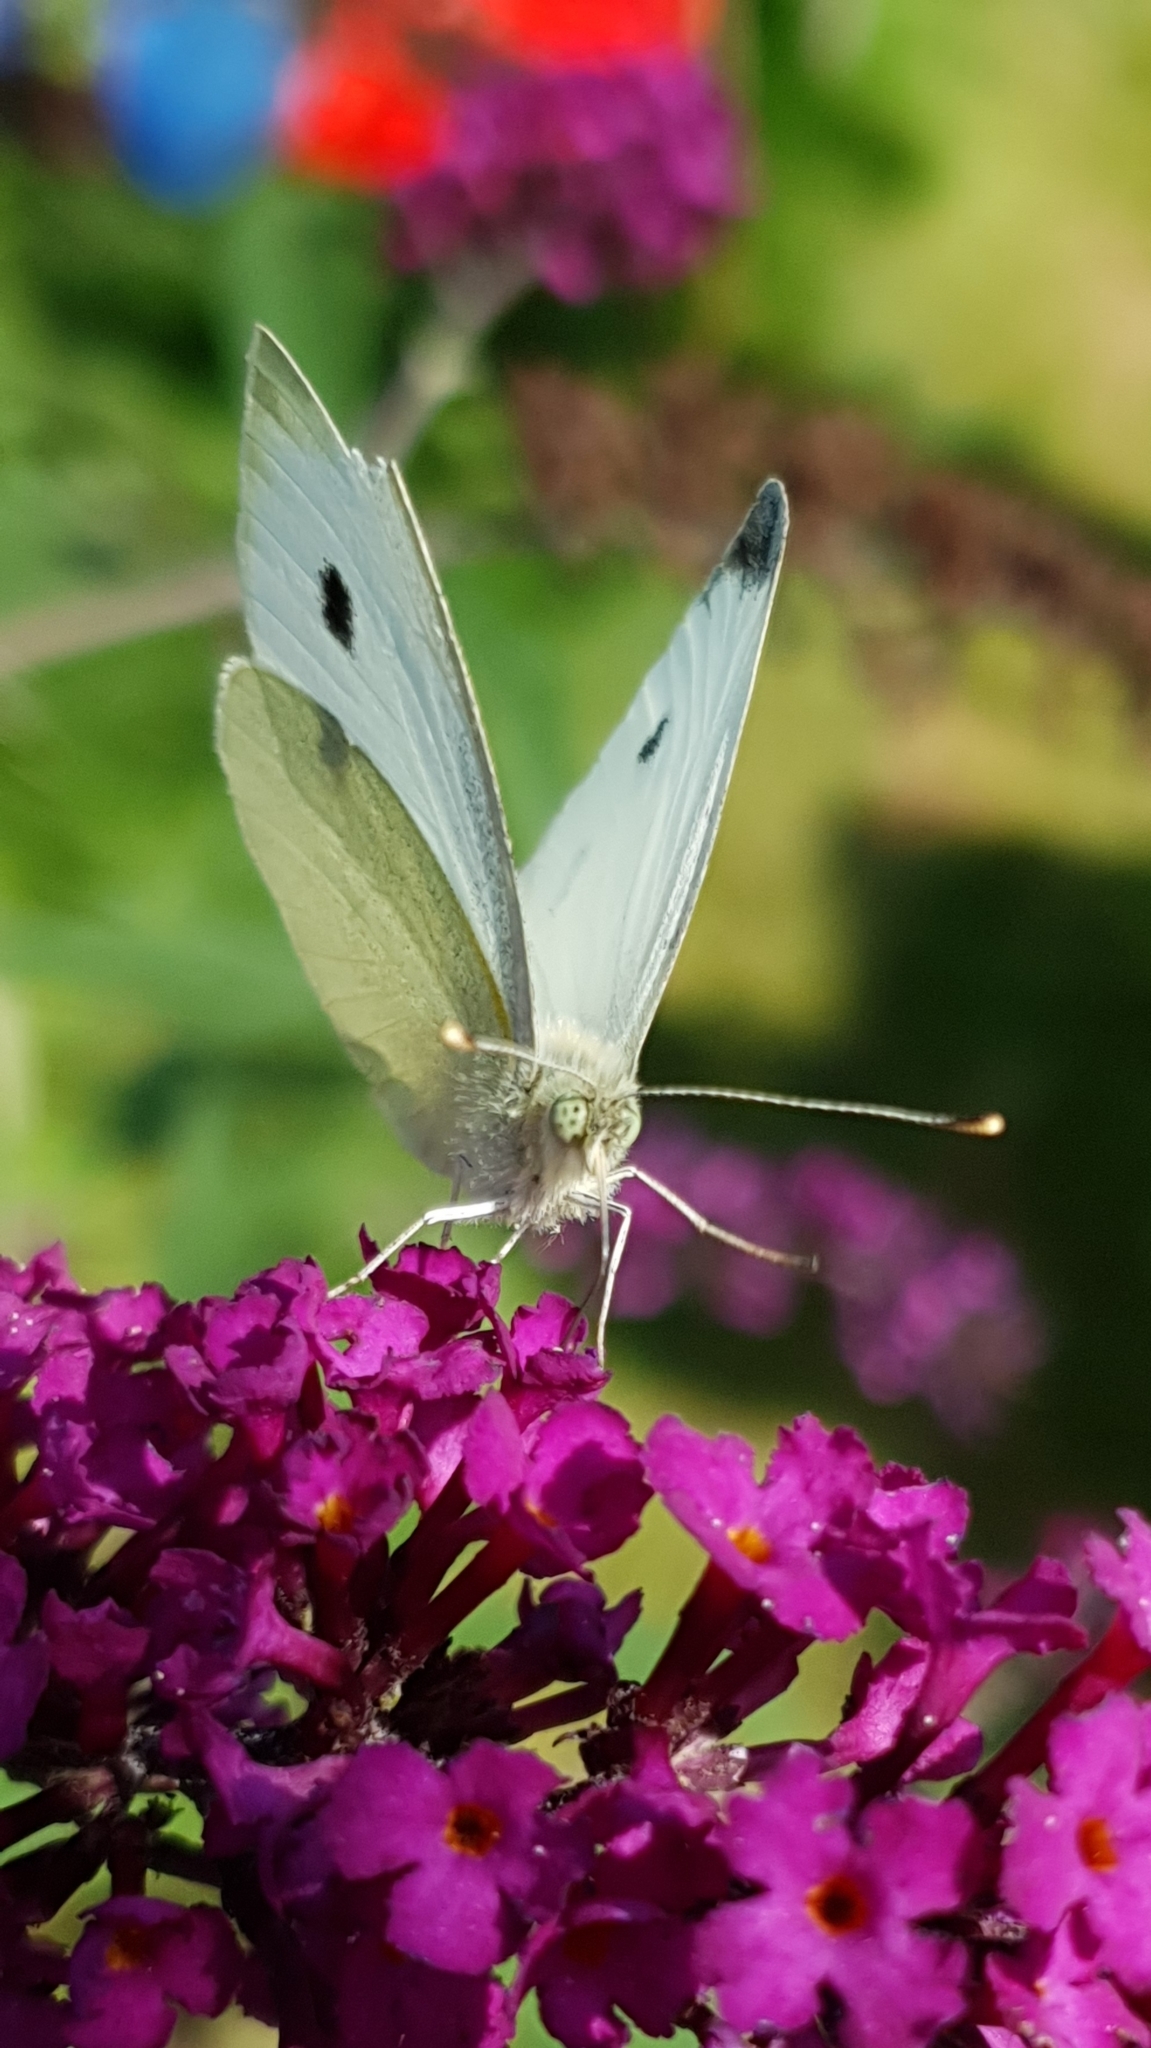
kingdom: Animalia
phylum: Arthropoda
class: Insecta
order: Lepidoptera
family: Pieridae
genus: Pieris
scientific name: Pieris rapae
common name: Small white
